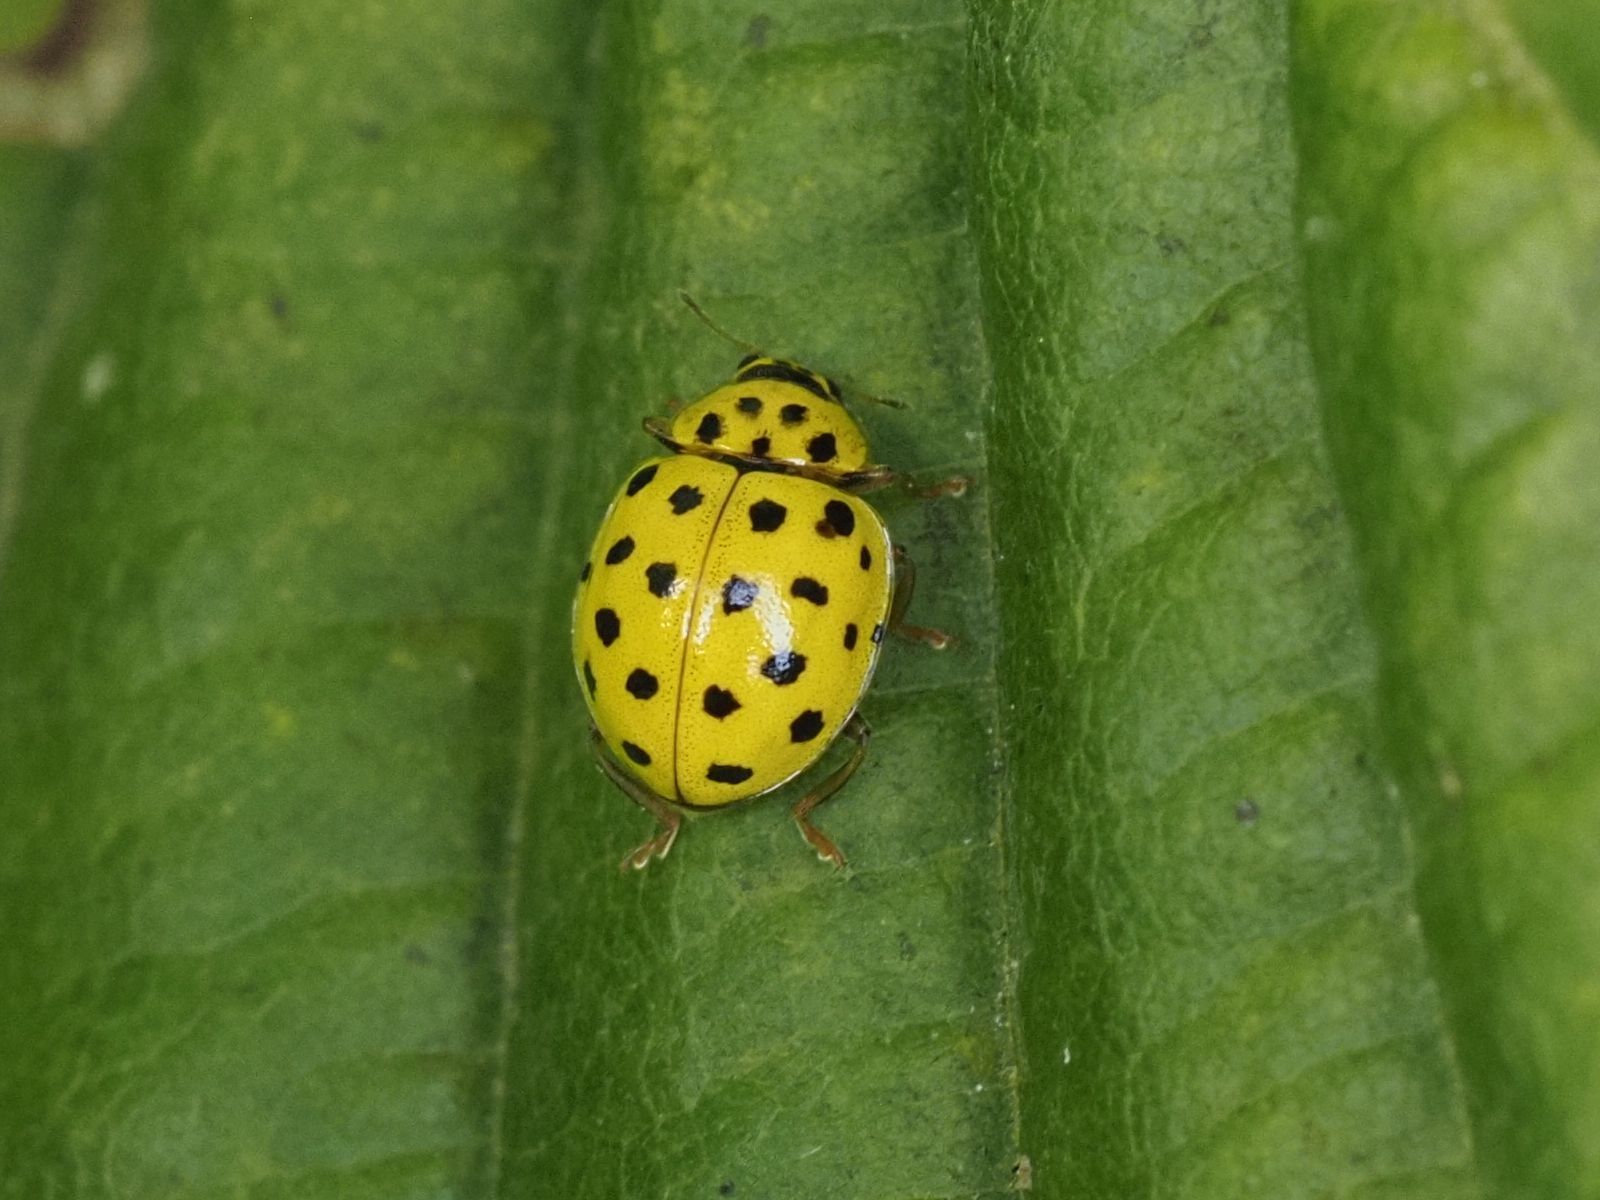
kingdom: Animalia
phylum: Arthropoda
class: Insecta
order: Coleoptera
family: Coccinellidae
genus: Psyllobora
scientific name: Psyllobora vigintiduopunctata
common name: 22-spot ladybird
